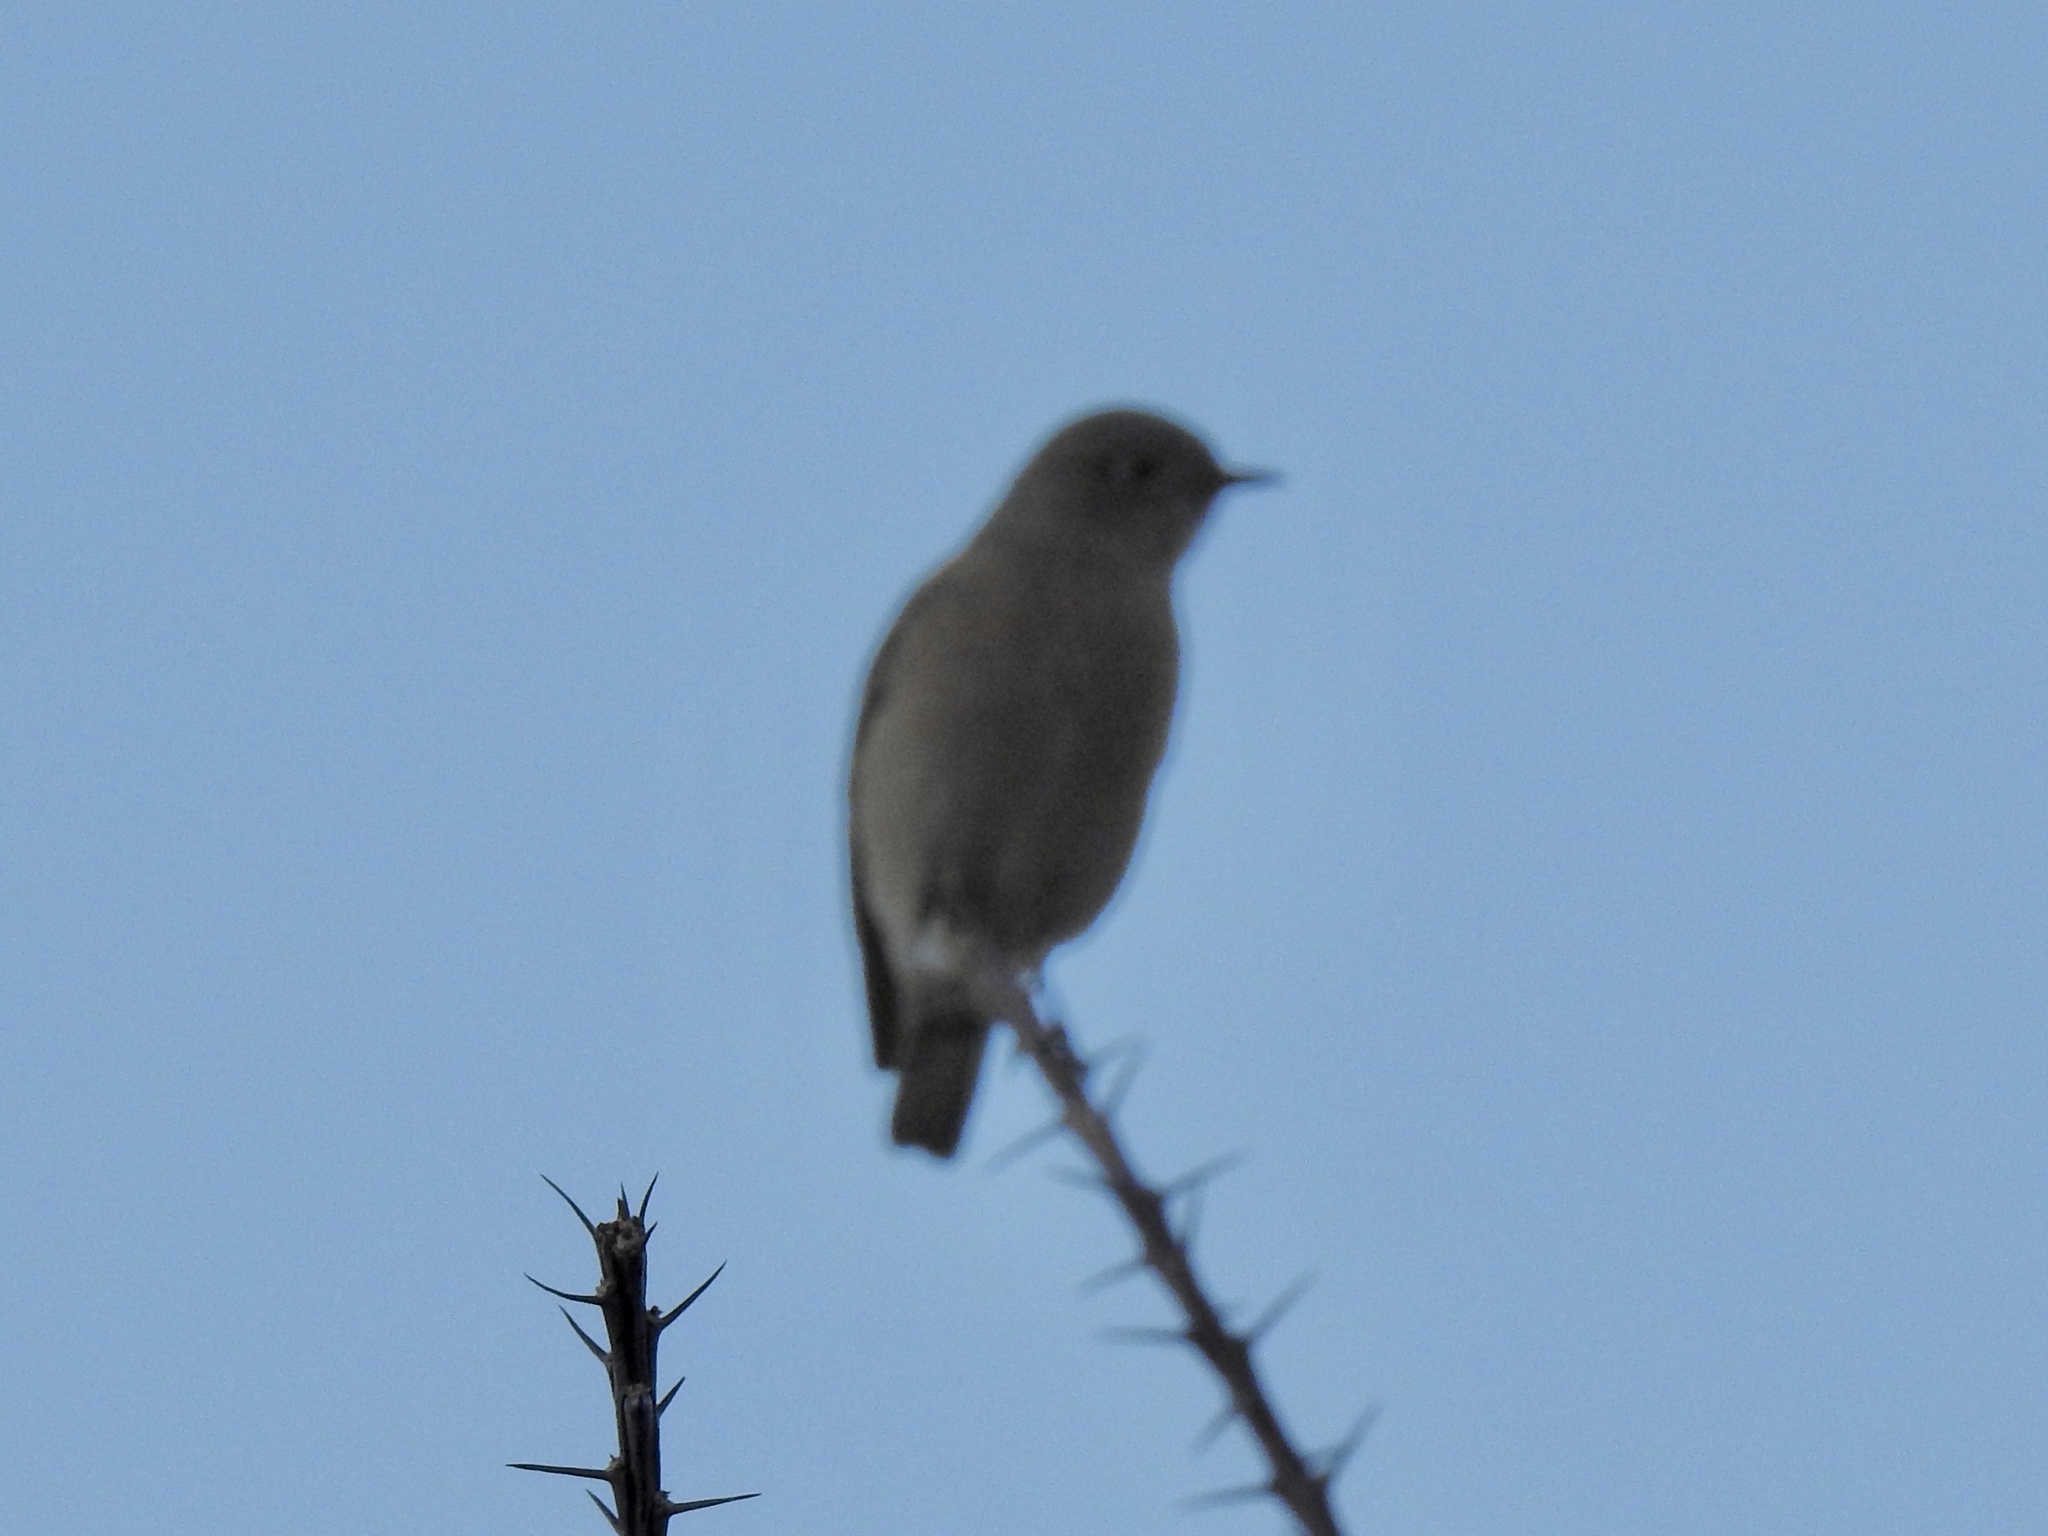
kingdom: Animalia
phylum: Chordata
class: Aves
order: Passeriformes
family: Turdidae
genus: Myadestes
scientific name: Myadestes townsendi
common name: Townsend's solitaire
